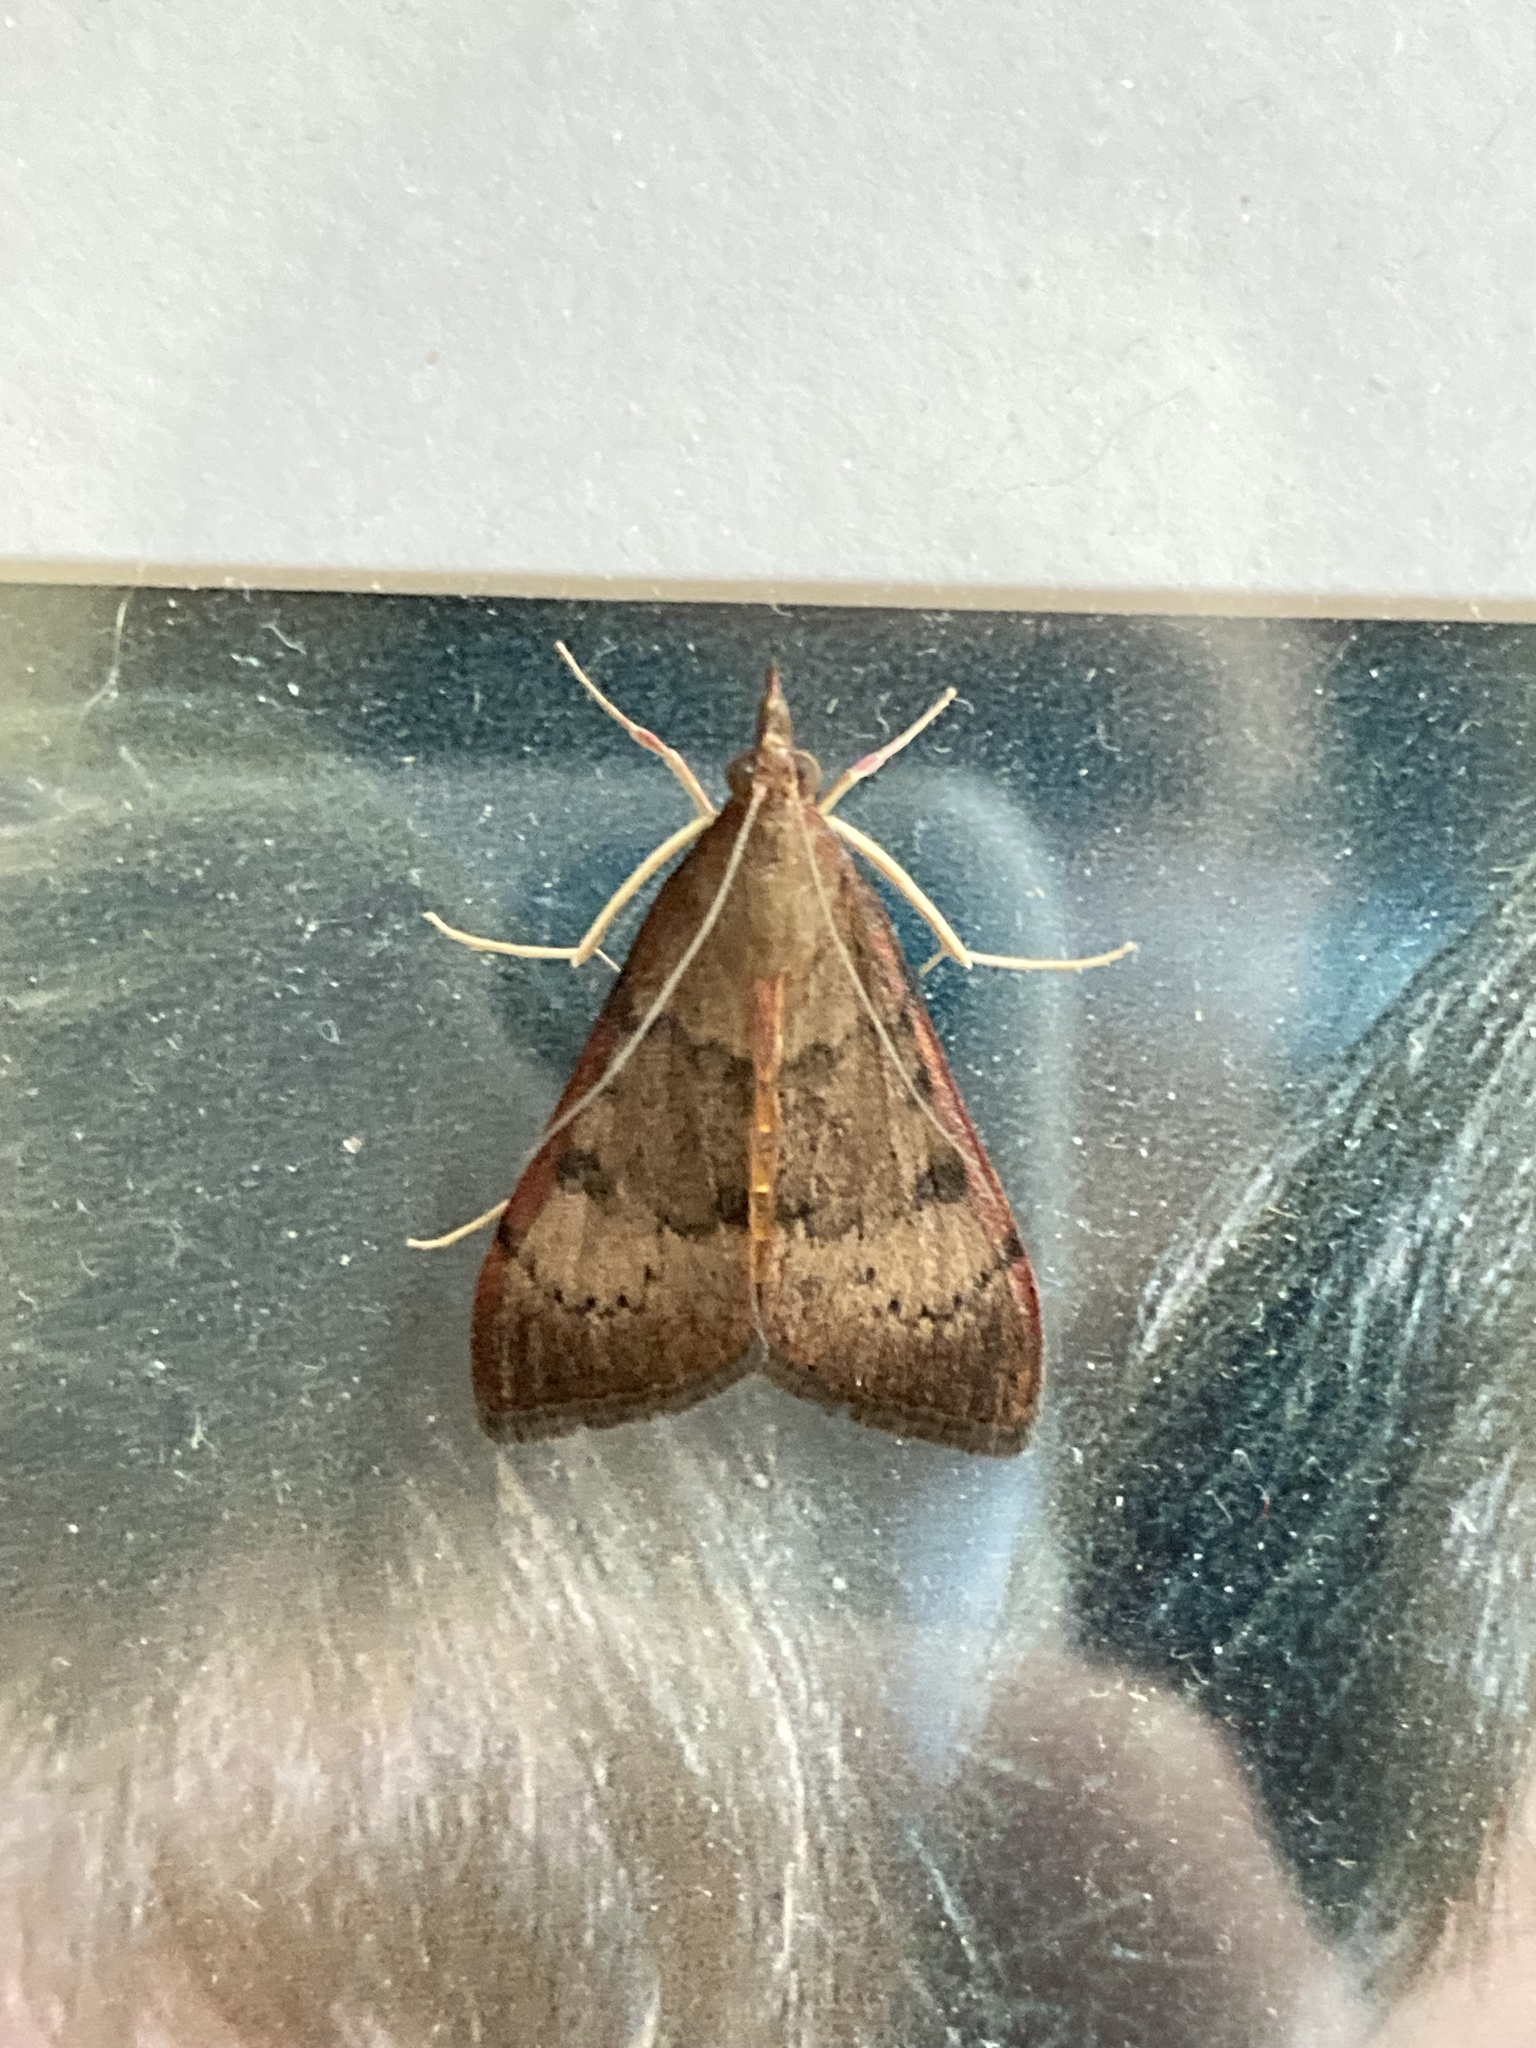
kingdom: Animalia
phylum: Arthropoda
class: Insecta
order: Lepidoptera
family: Crambidae
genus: Uresiphita
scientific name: Uresiphita ornithopteralis
